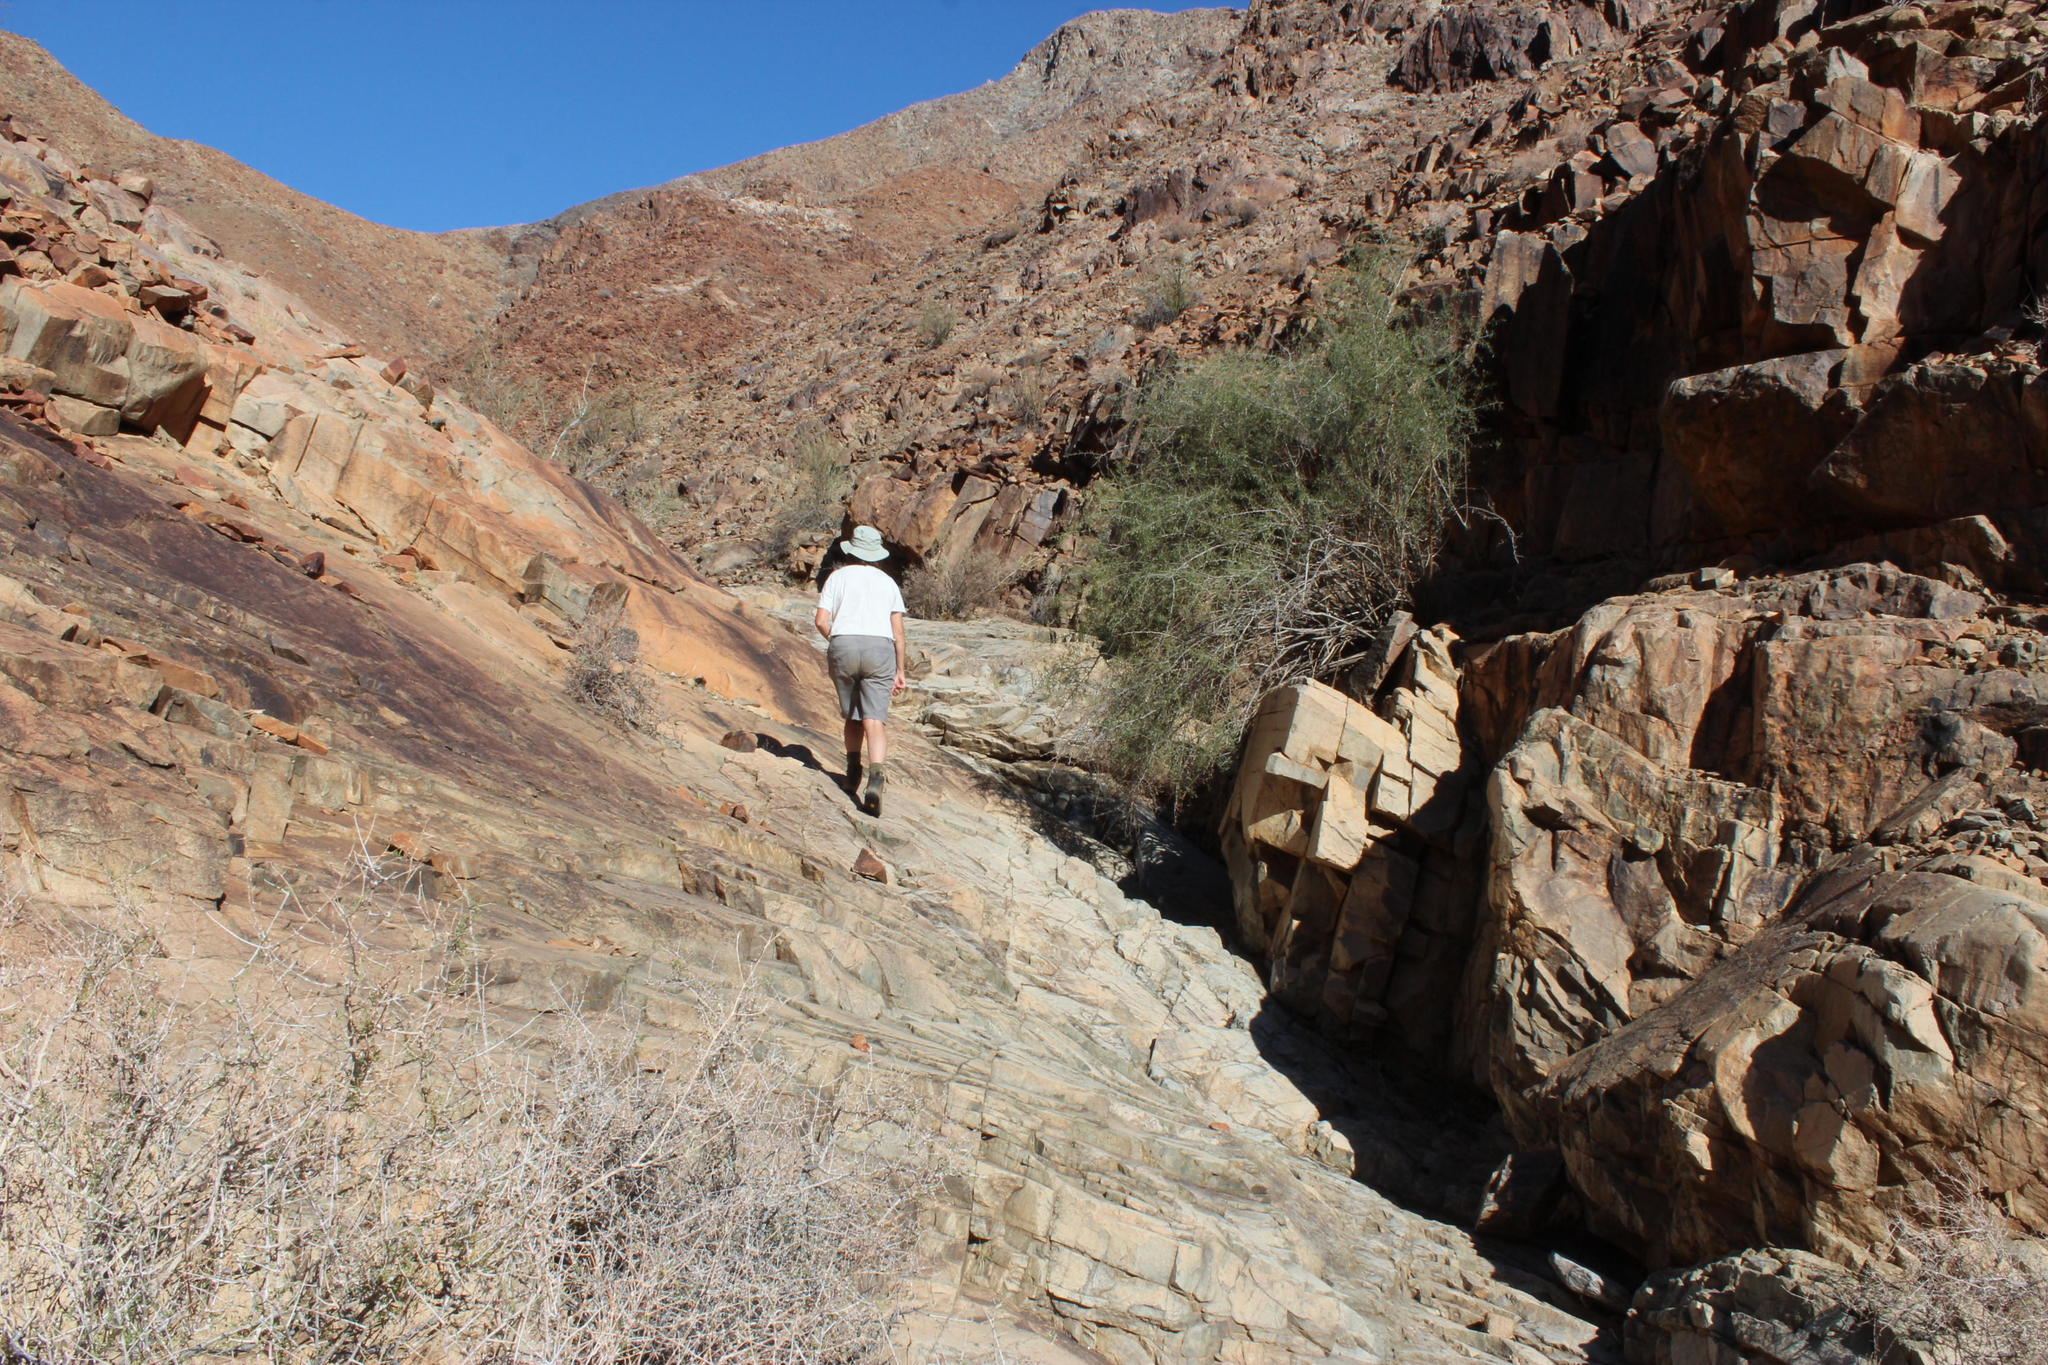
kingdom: Plantae
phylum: Tracheophyta
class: Magnoliopsida
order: Celastrales
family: Celastraceae
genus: Gymnosporia
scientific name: Gymnosporia gariepensis
